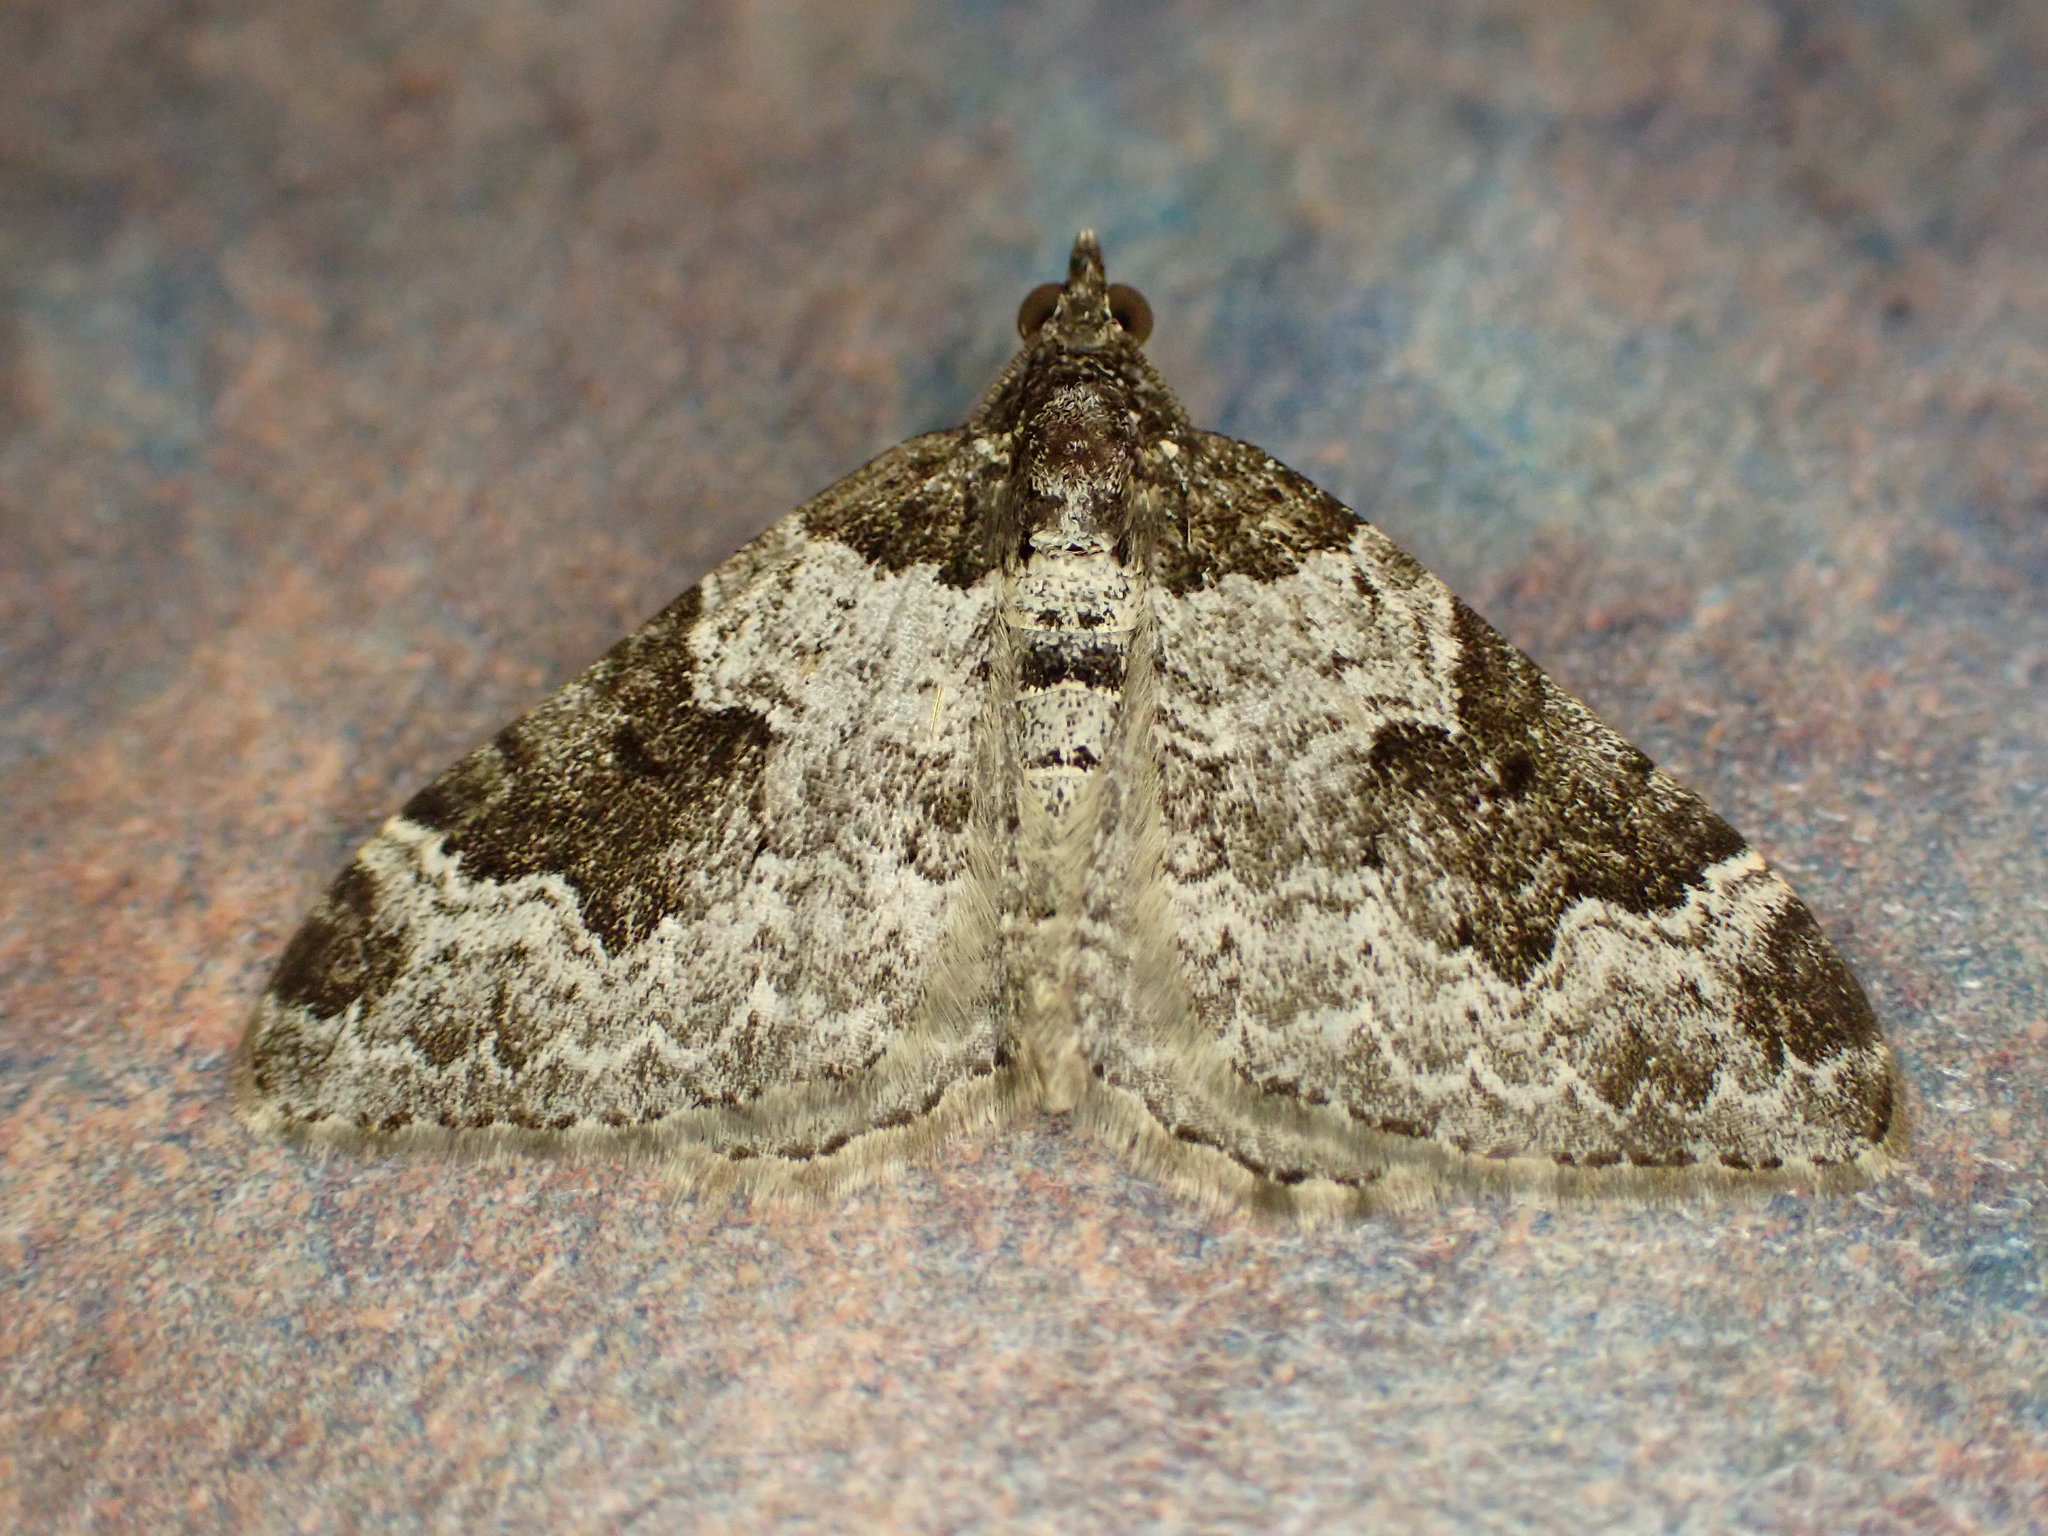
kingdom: Animalia
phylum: Arthropoda
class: Insecta
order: Lepidoptera
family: Geometridae
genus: Xanthorhoe
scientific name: Xanthorhoe fluctuata
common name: Garden carpet
